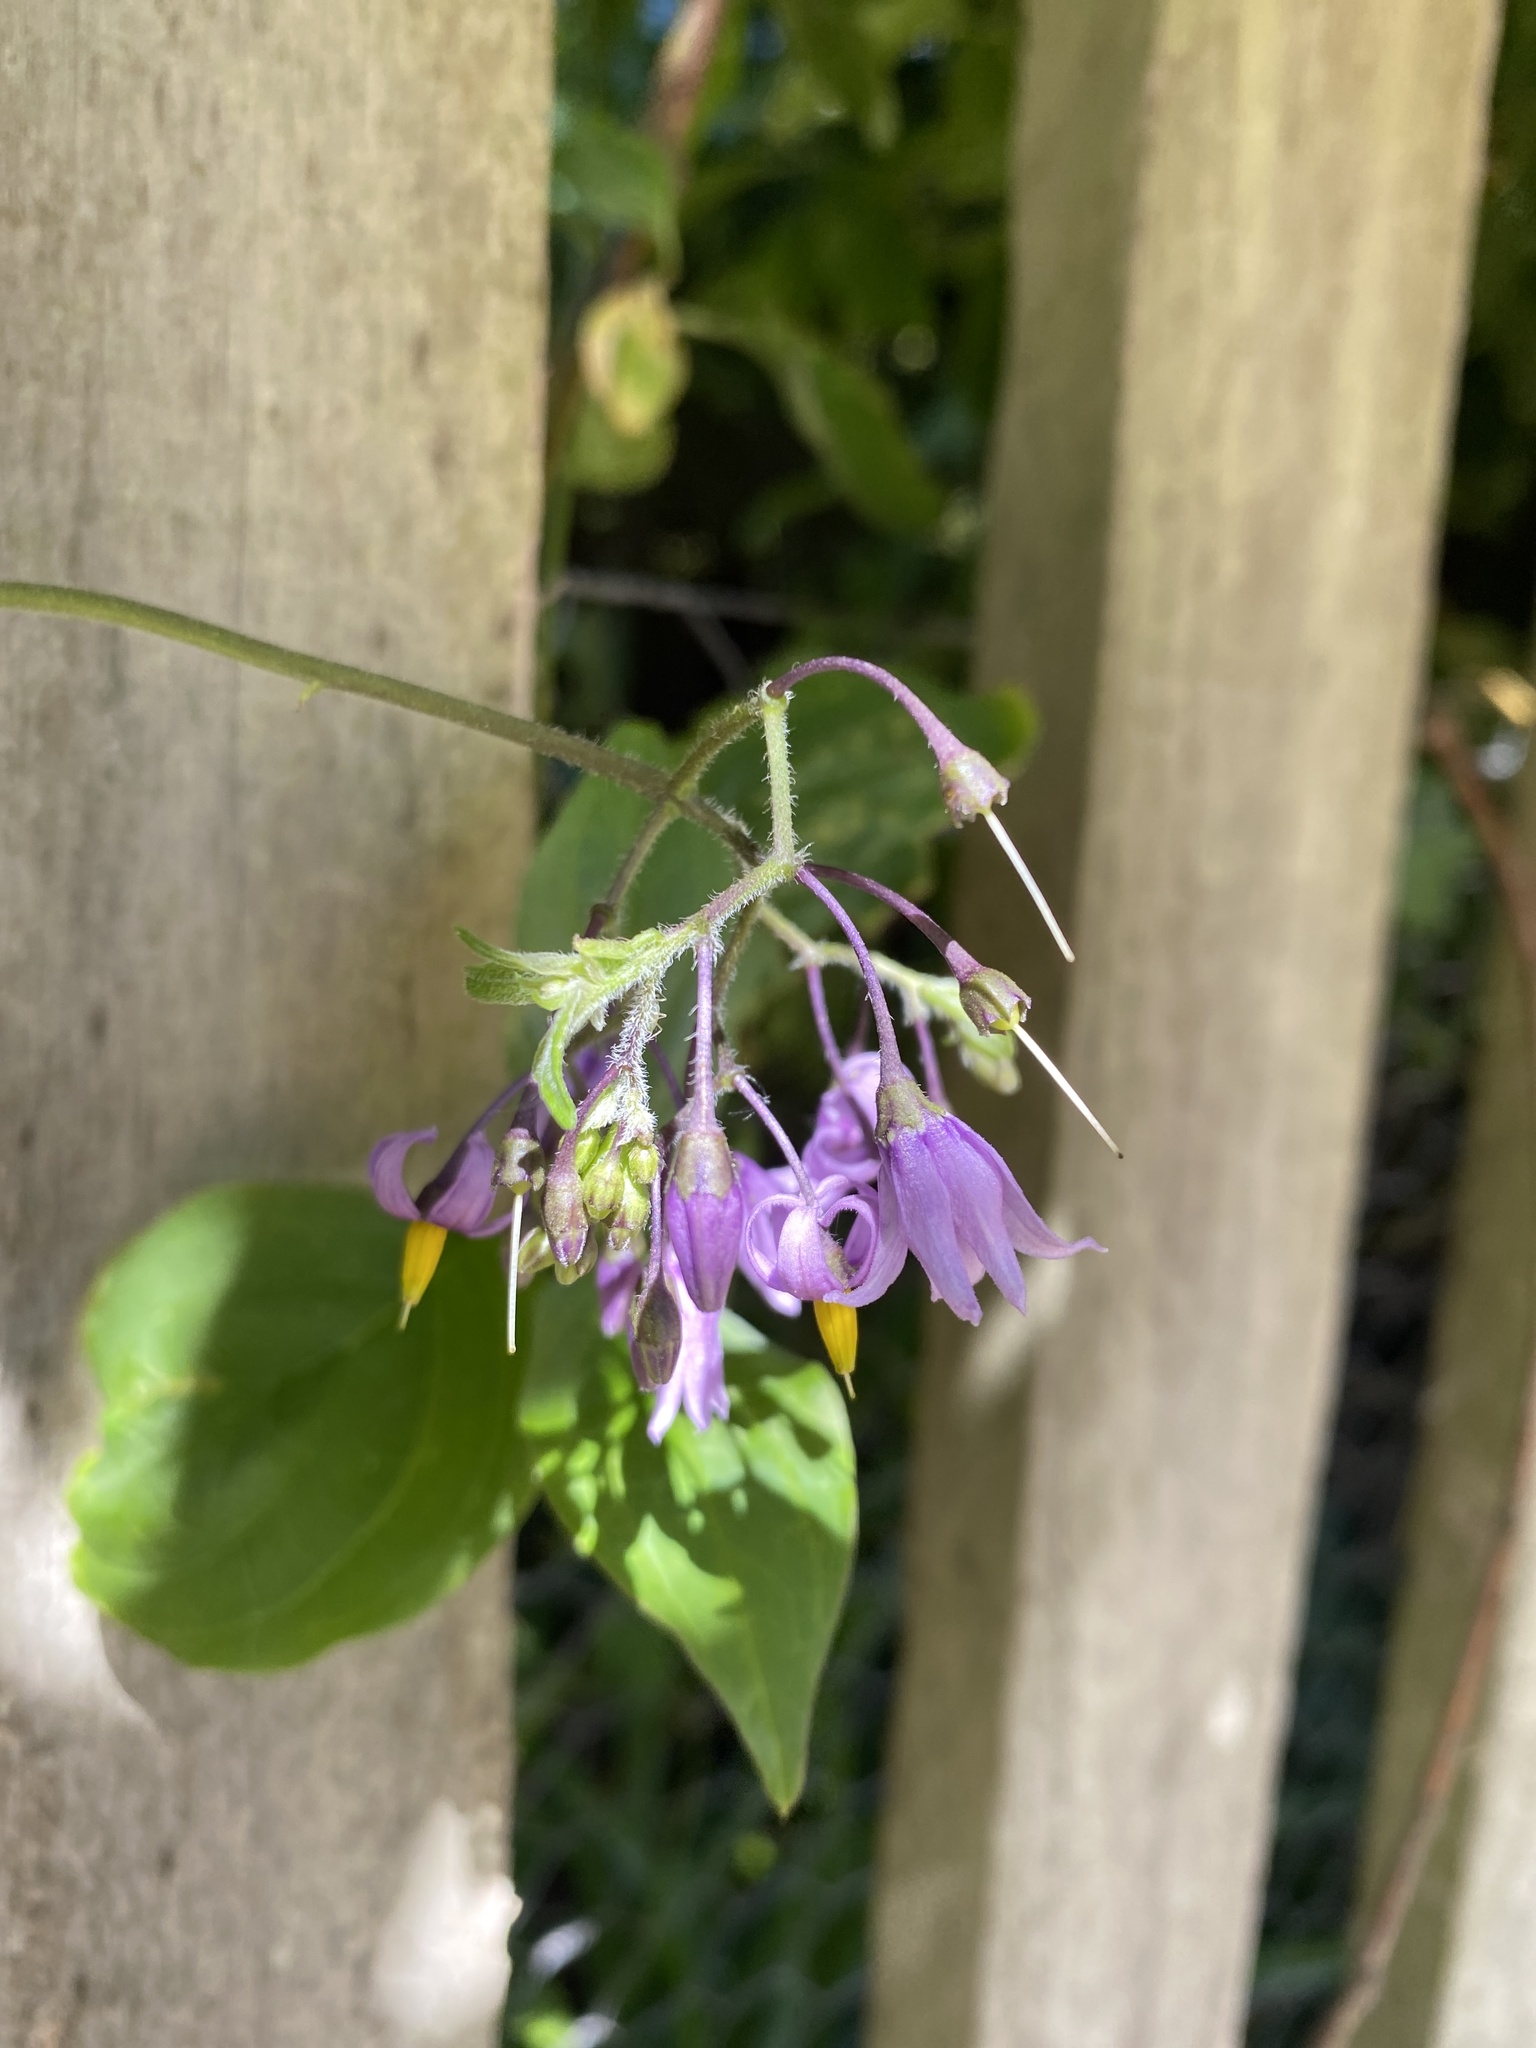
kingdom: Plantae
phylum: Tracheophyta
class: Magnoliopsida
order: Solanales
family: Solanaceae
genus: Solanum
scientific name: Solanum dulcamara
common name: Climbing nightshade
